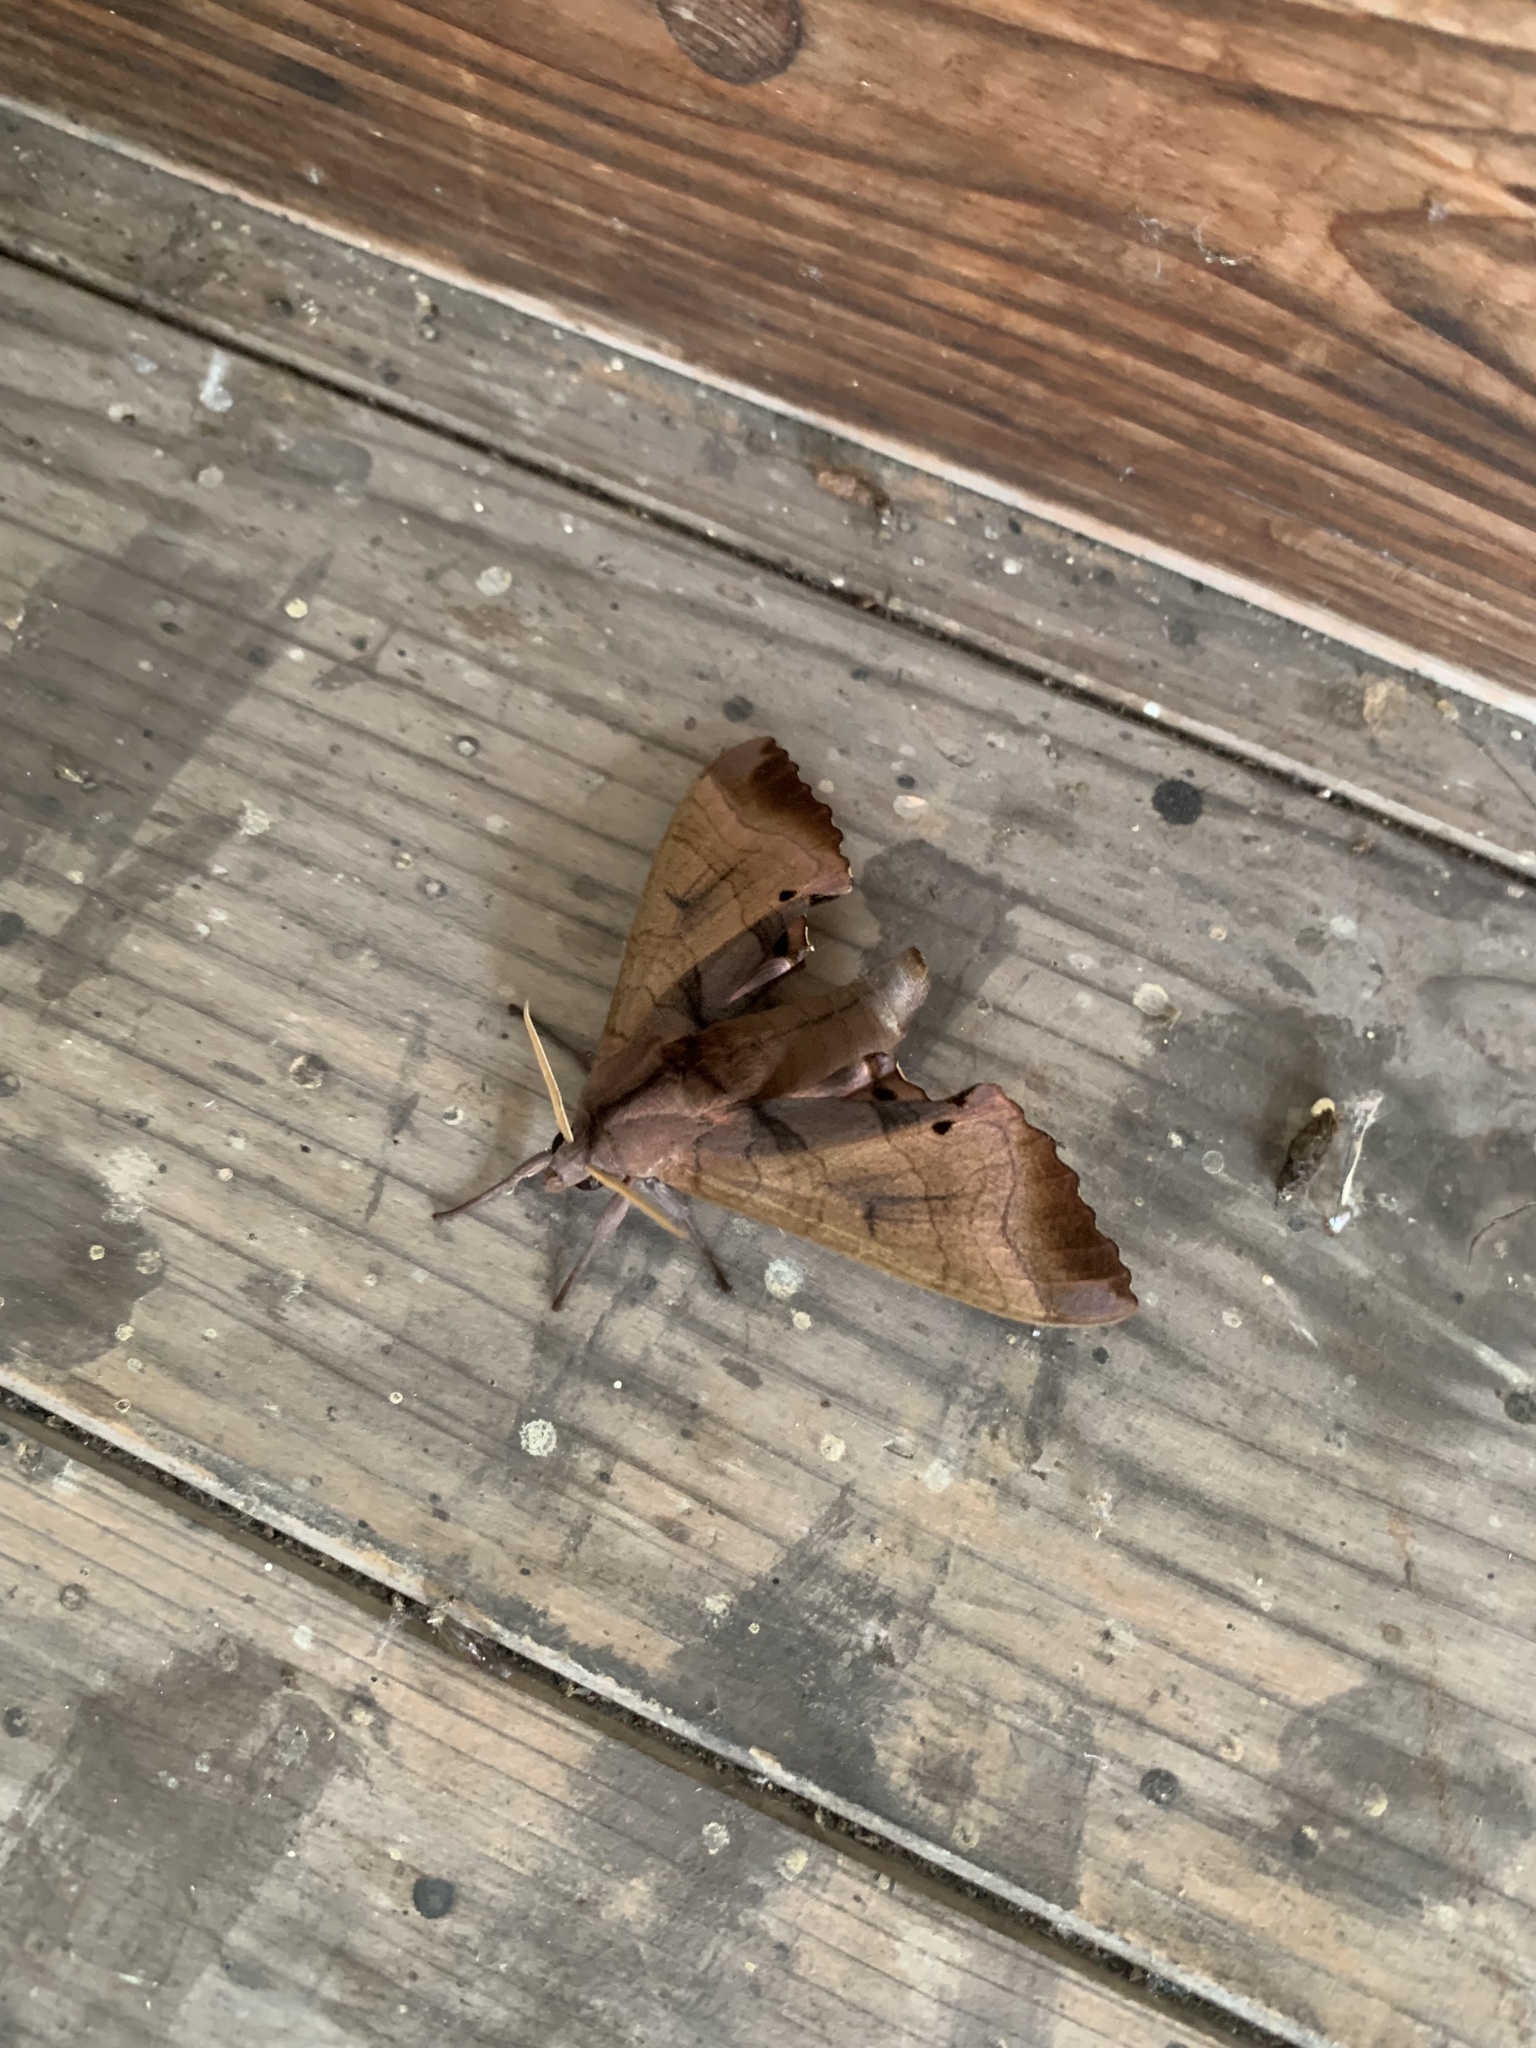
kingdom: Animalia
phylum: Arthropoda
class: Insecta
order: Lepidoptera
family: Sphingidae
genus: Marumba
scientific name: Marumba echephron
